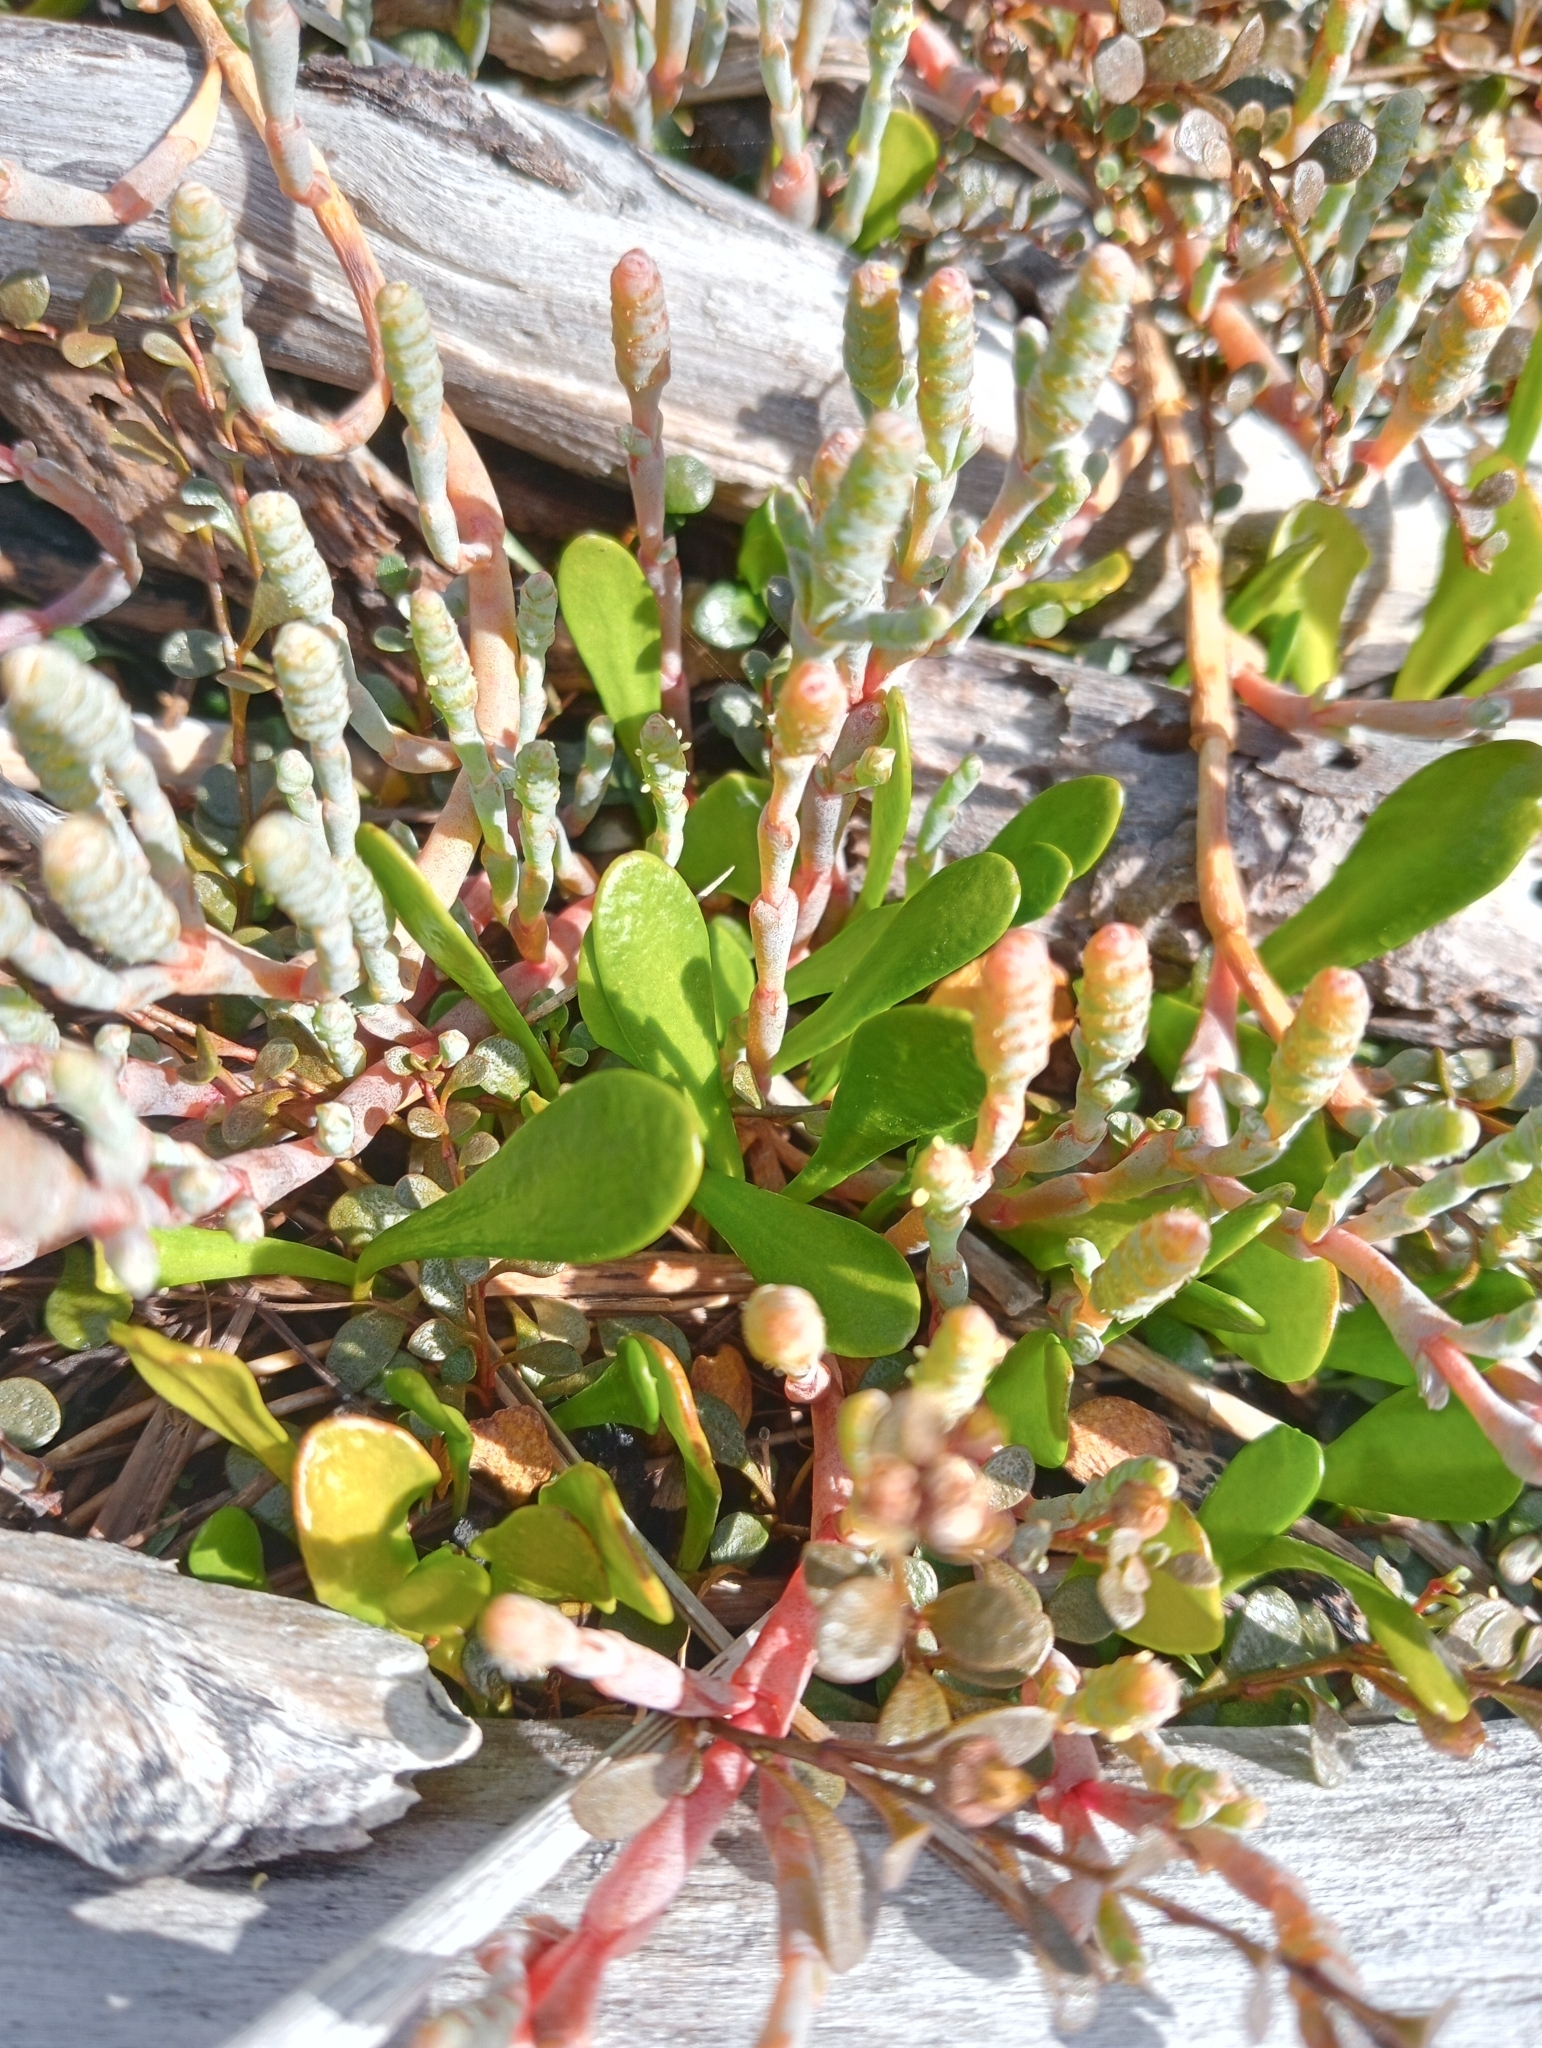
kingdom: Plantae
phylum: Tracheophyta
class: Magnoliopsida
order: Asterales
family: Goodeniaceae
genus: Goodenia
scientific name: Goodenia radicans
